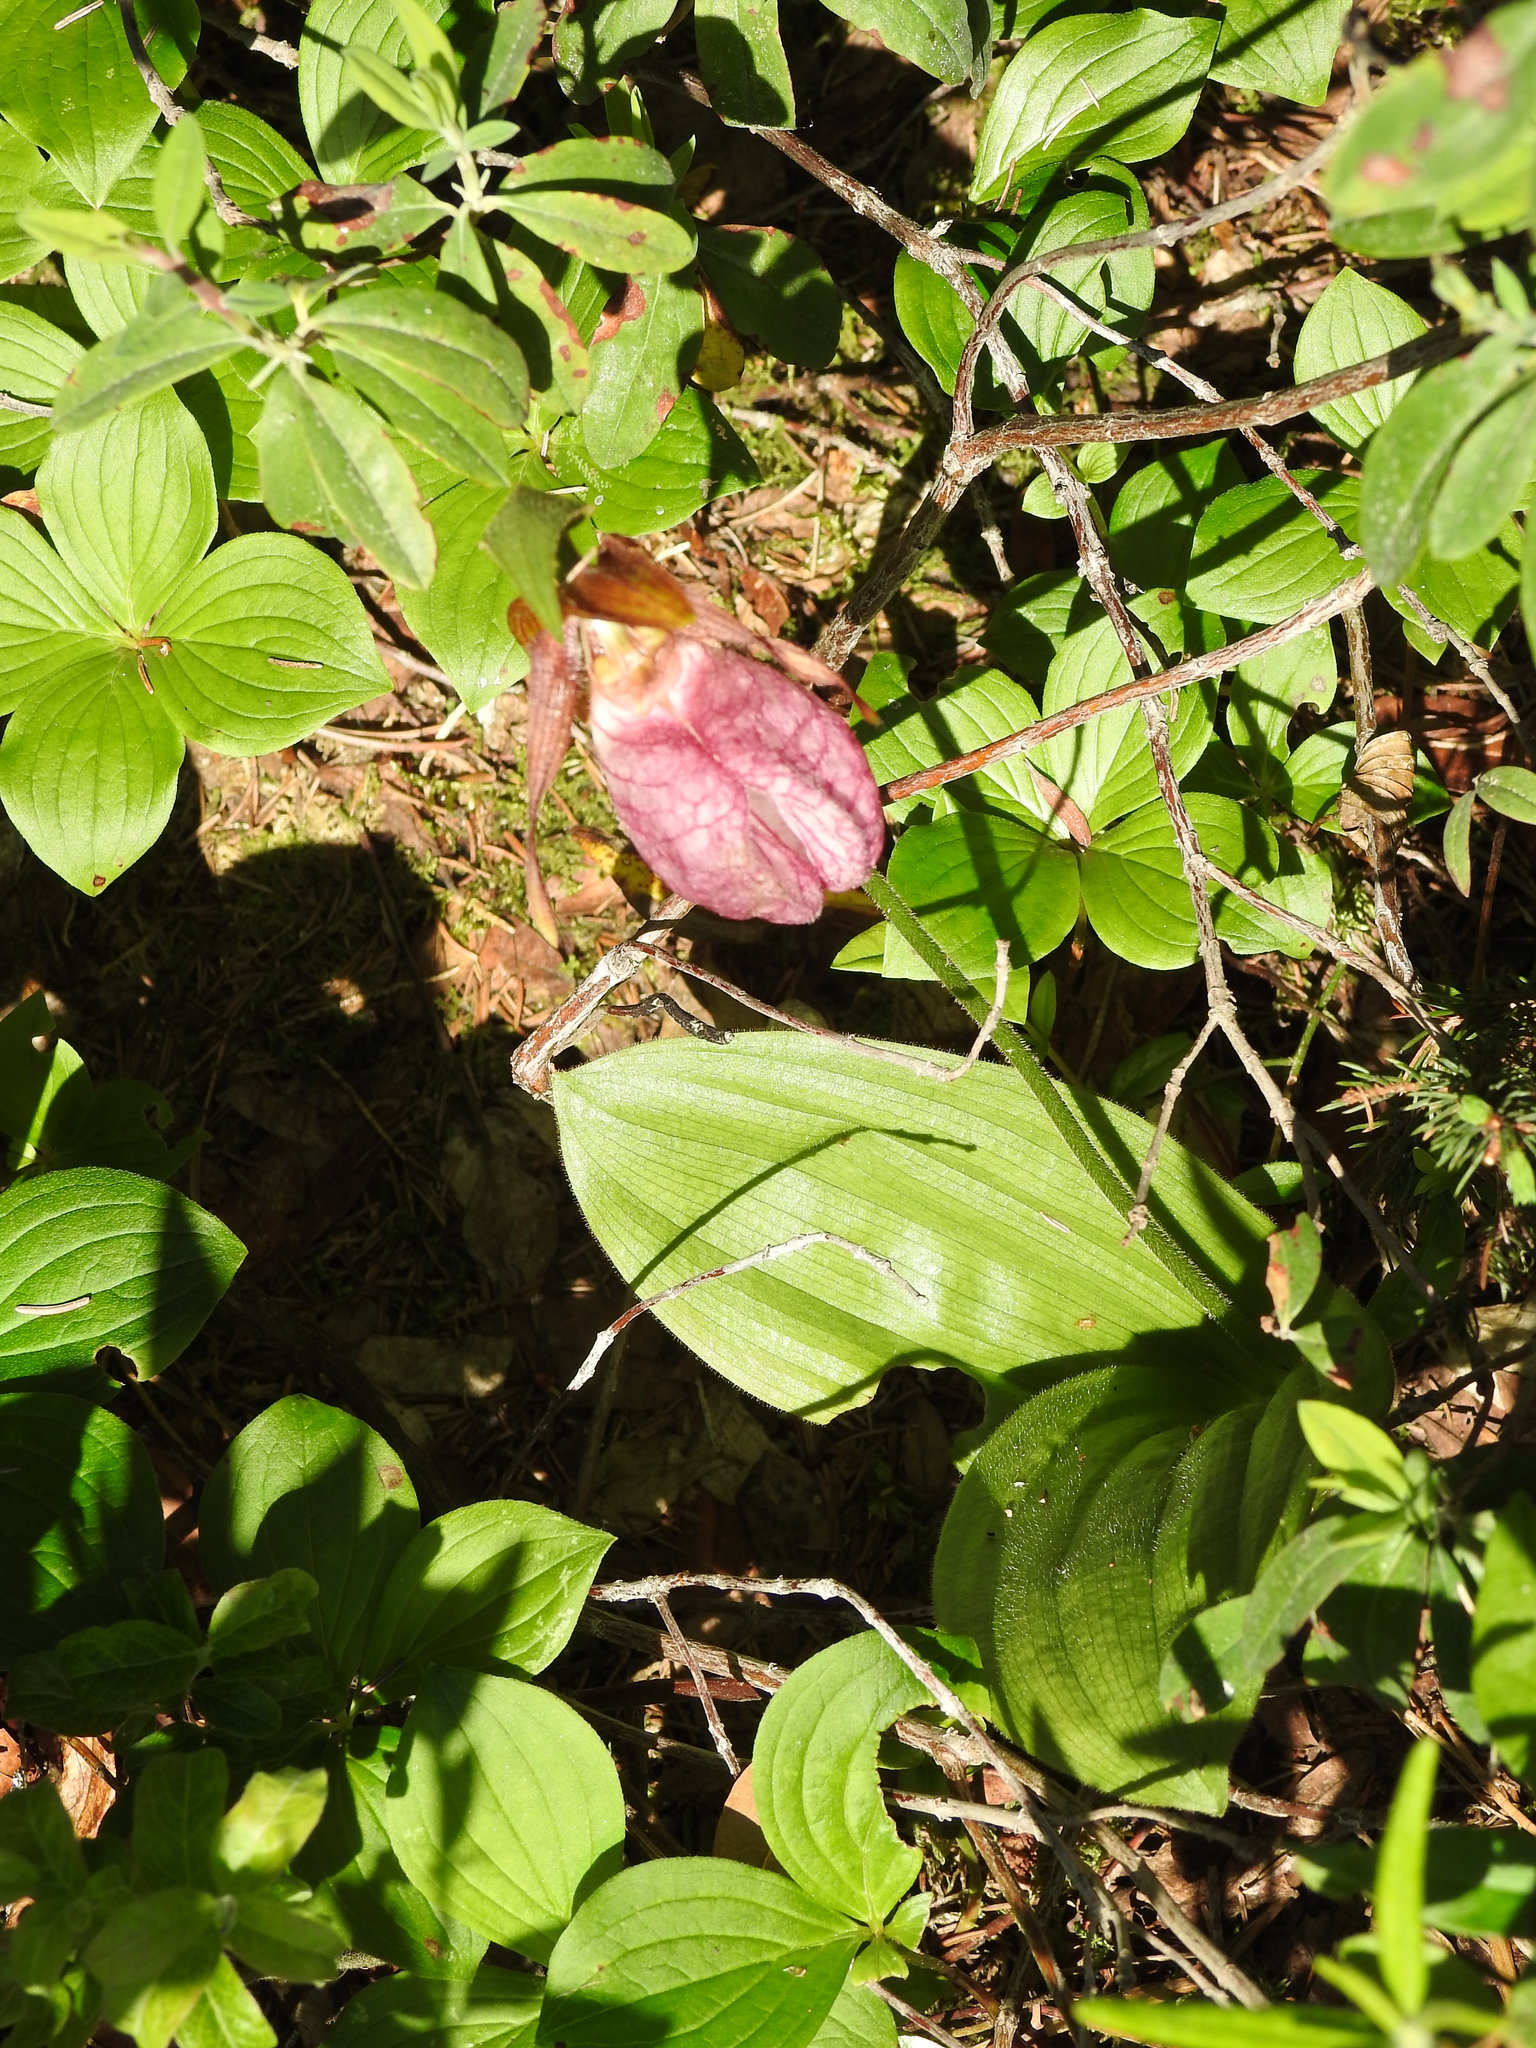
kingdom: Plantae
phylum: Tracheophyta
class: Liliopsida
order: Asparagales
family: Orchidaceae
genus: Cypripedium
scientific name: Cypripedium acaule
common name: Pink lady's-slipper
